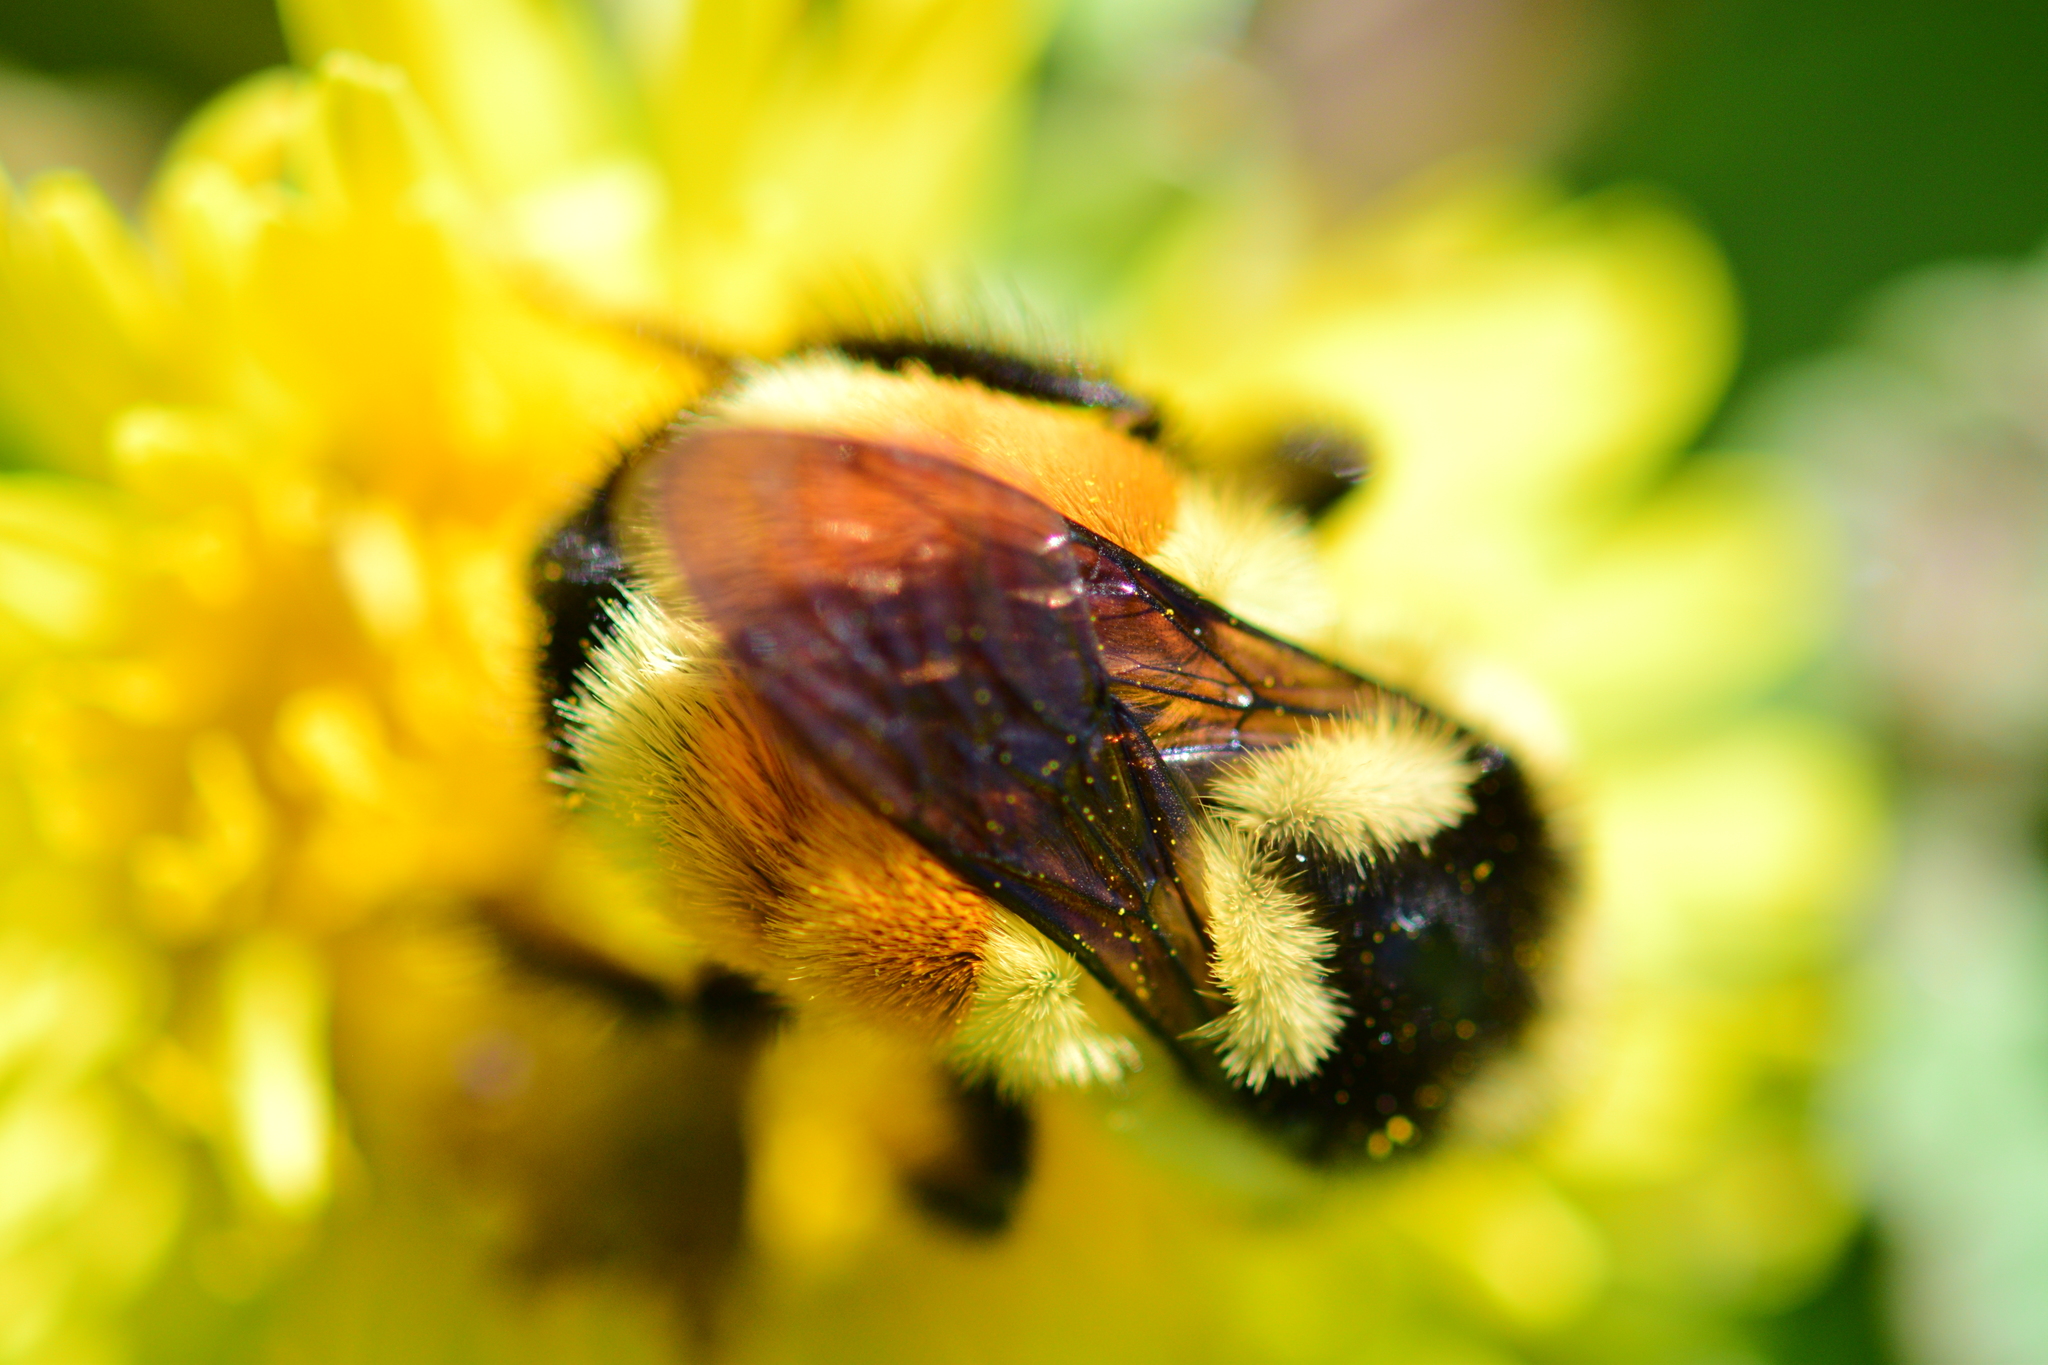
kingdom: Animalia
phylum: Arthropoda
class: Insecta
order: Hymenoptera
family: Apidae
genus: Bombus
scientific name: Bombus ternarius
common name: Tri-colored bumble bee
